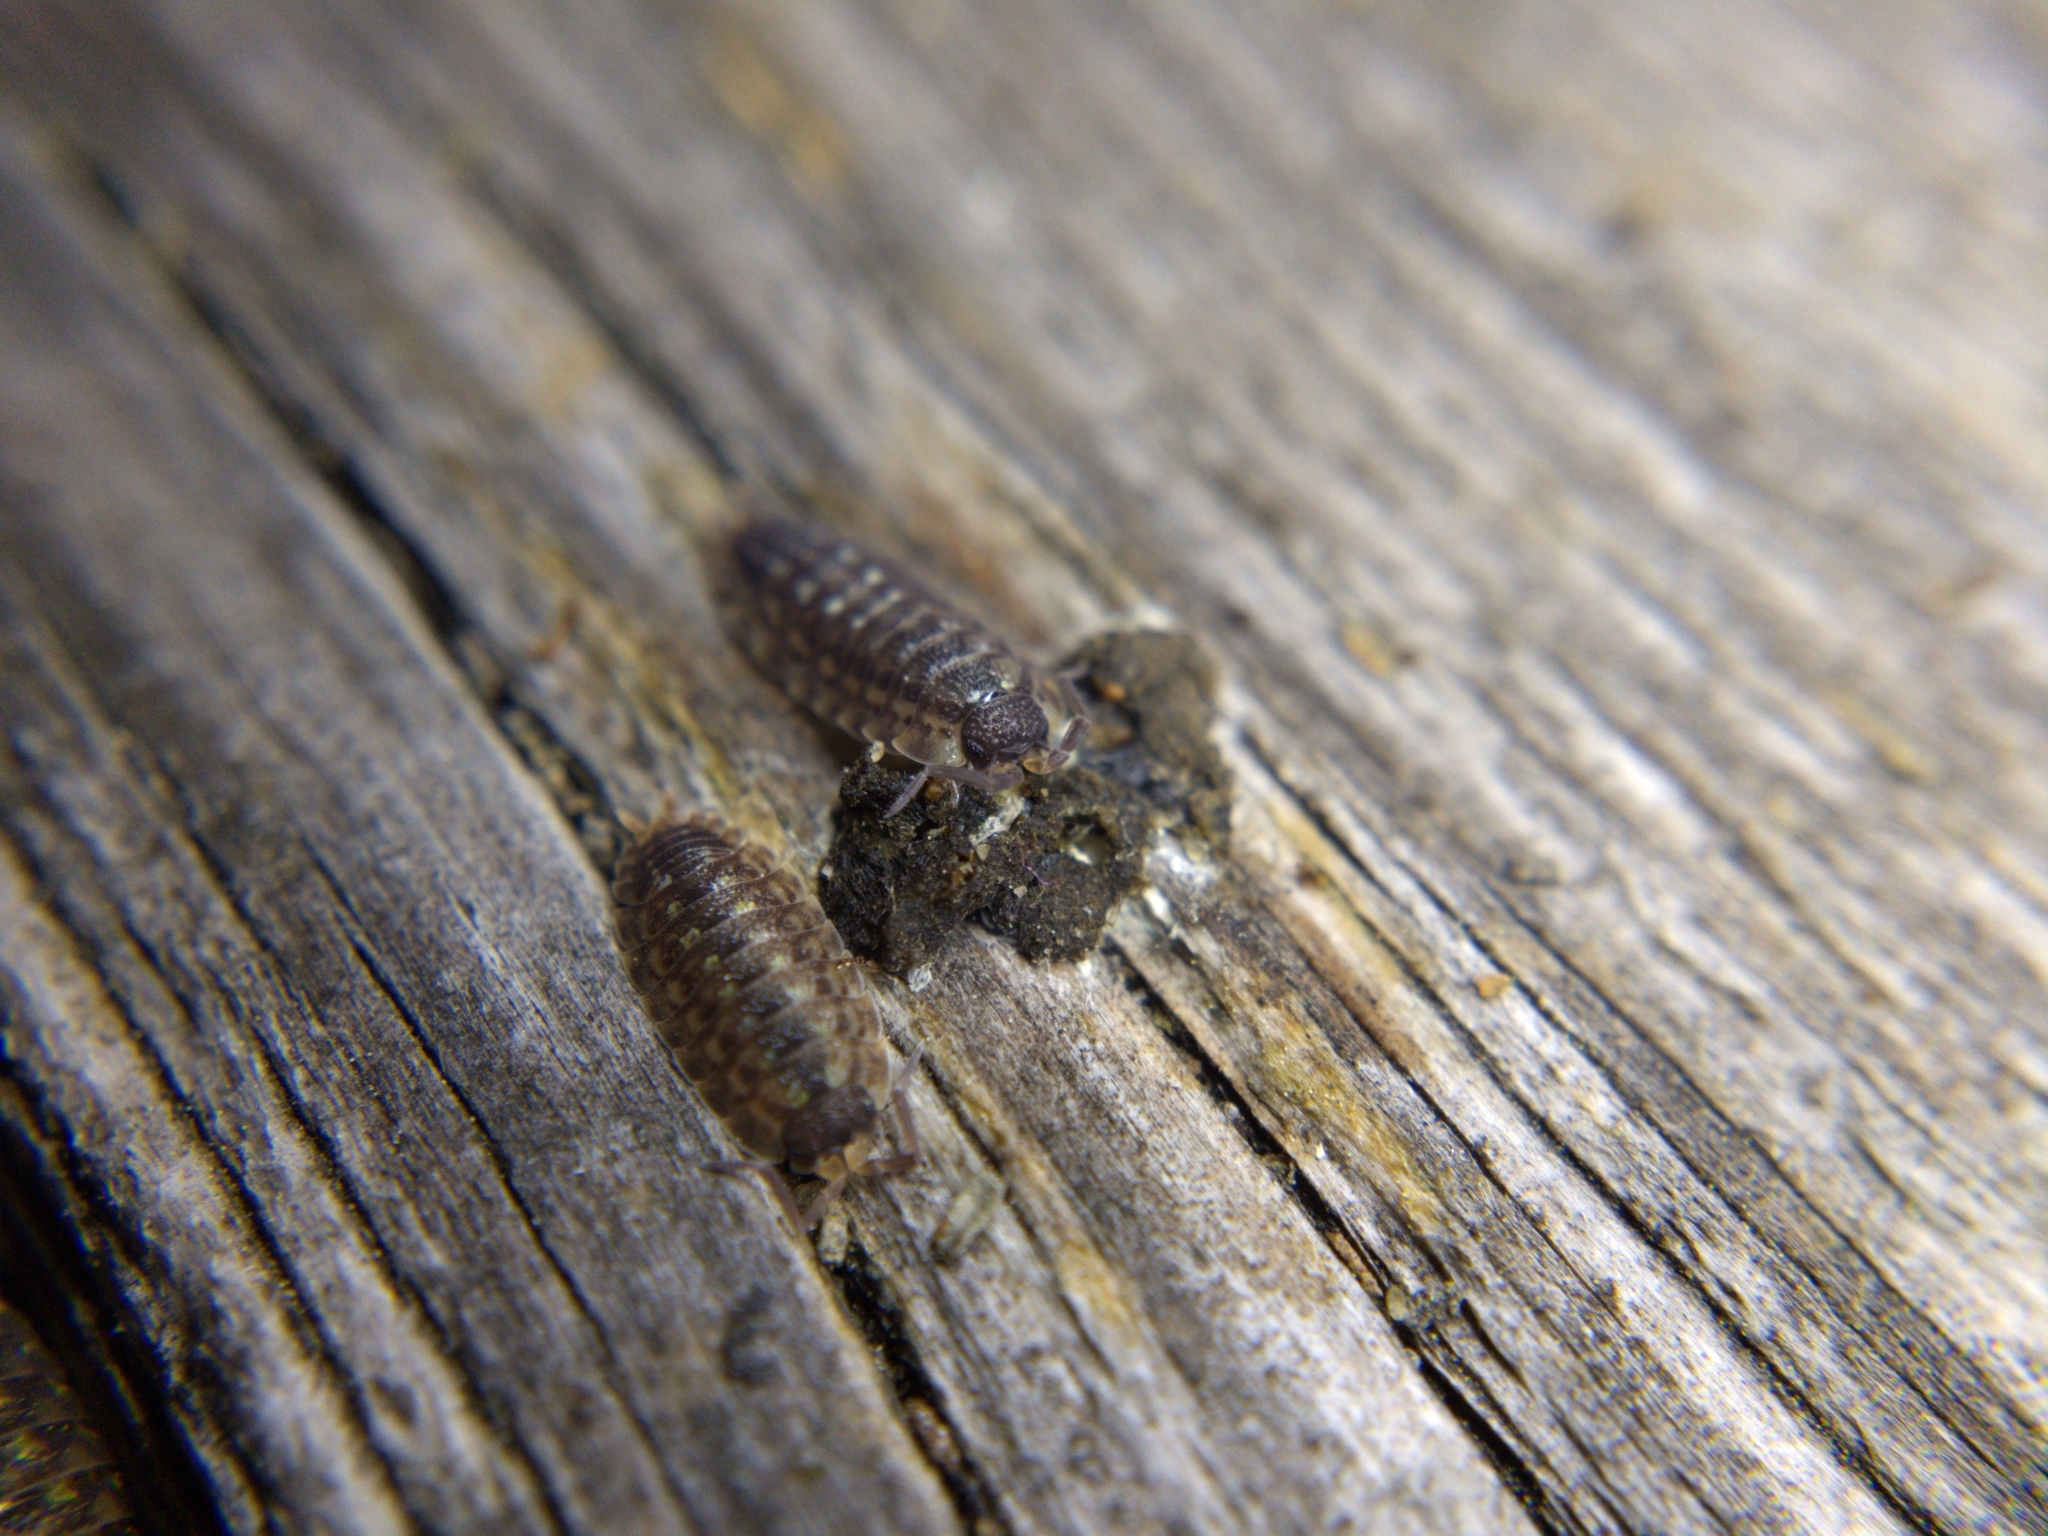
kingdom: Animalia
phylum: Arthropoda
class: Malacostraca
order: Isopoda
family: Porcellionidae
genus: Porcellio
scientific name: Porcellio spinicornis
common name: Painted woodlouse
